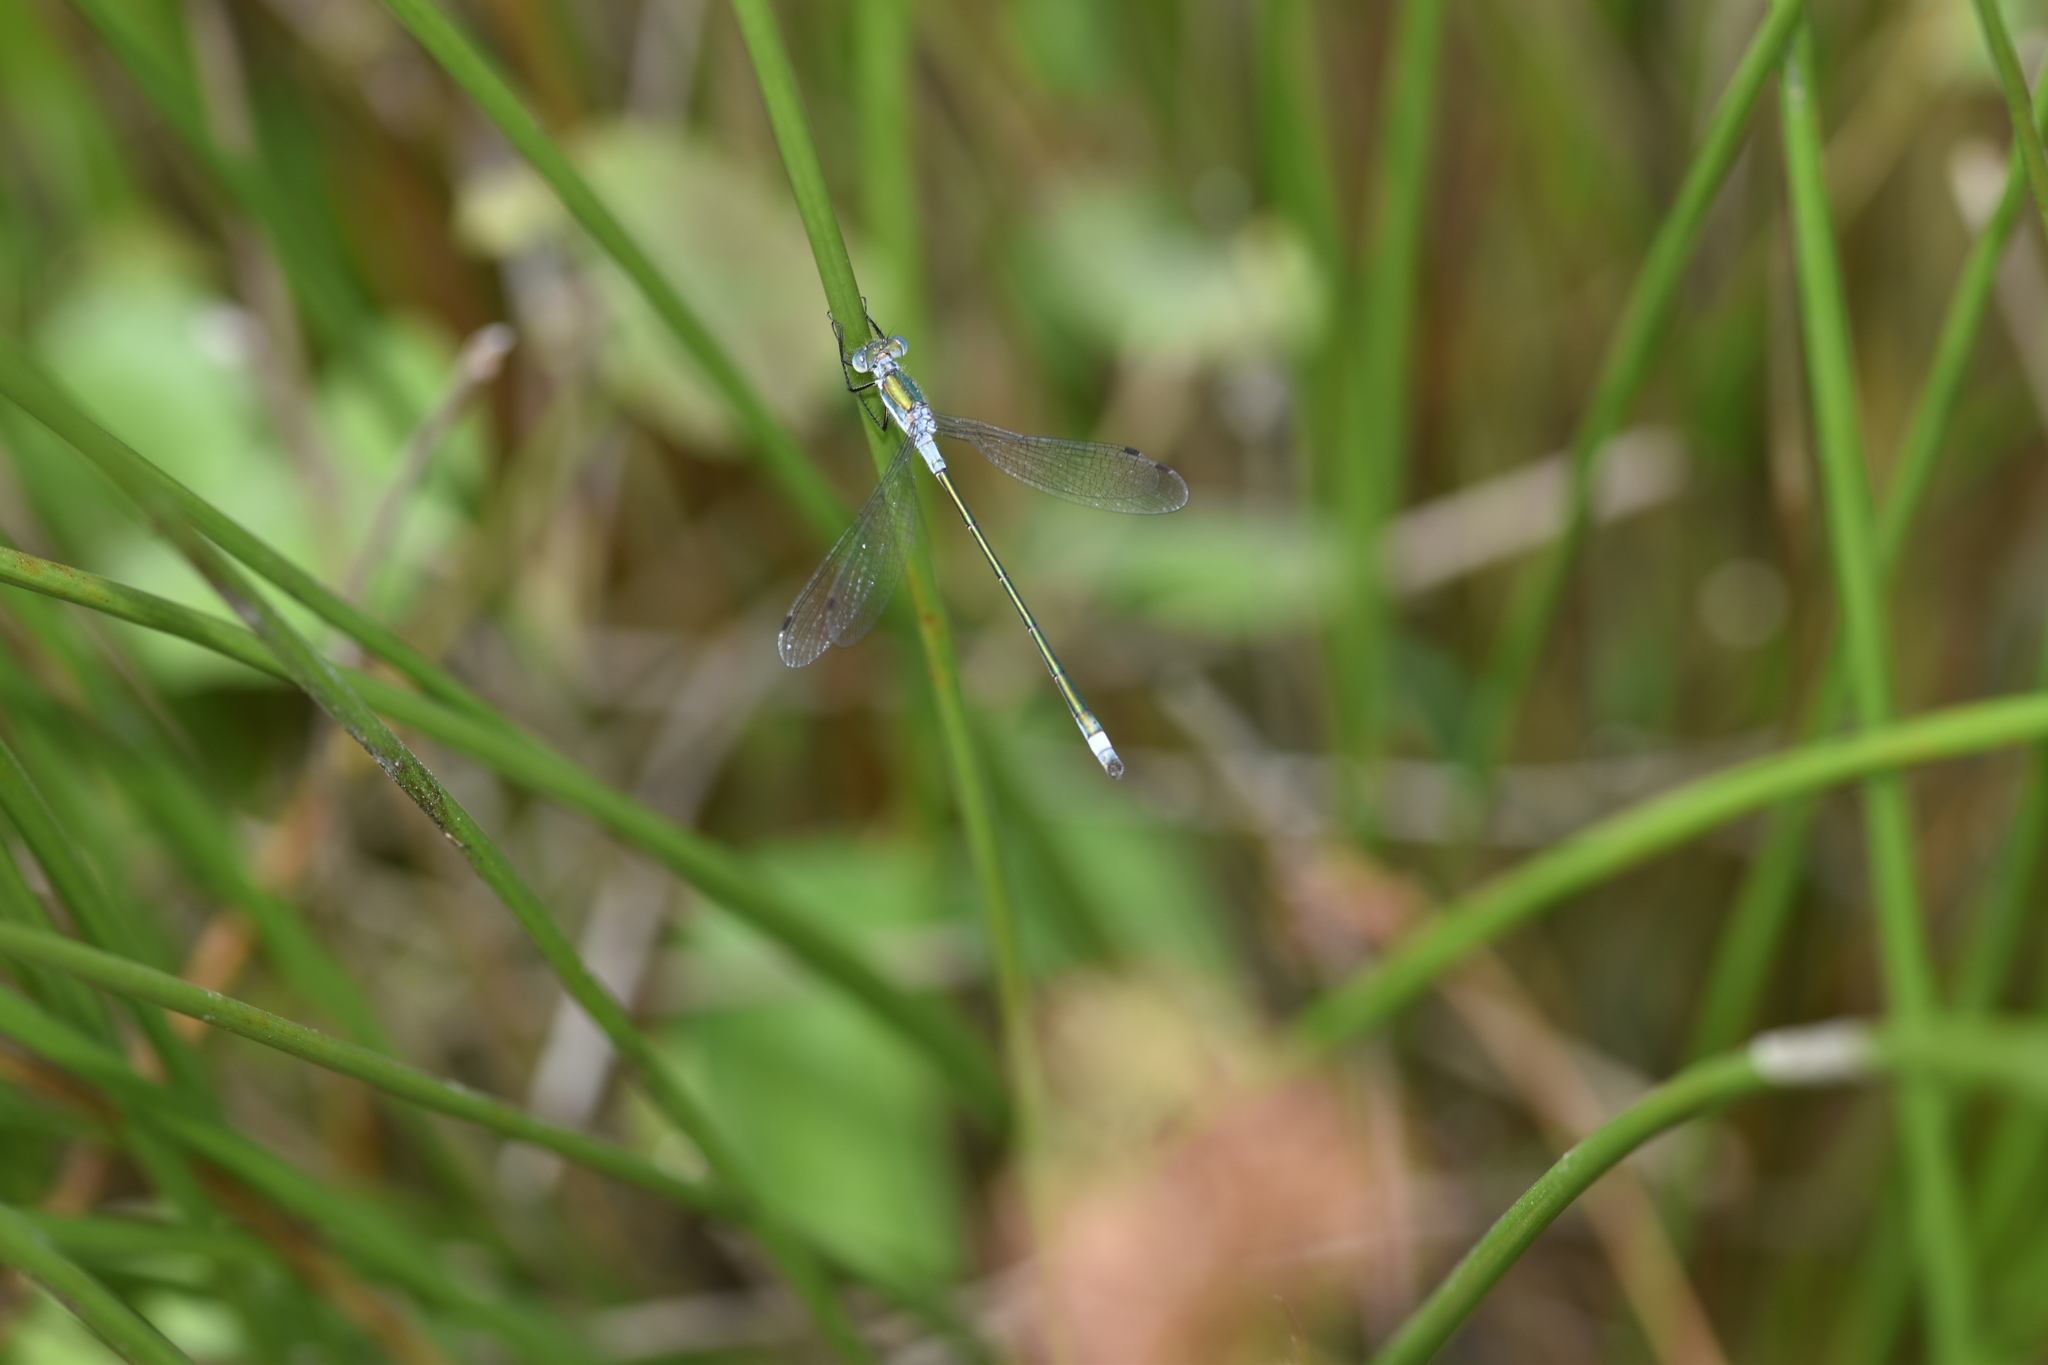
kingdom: Animalia
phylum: Arthropoda
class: Insecta
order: Odonata
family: Lestidae
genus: Lestes
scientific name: Lestes sponsa
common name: Common spreadwing
